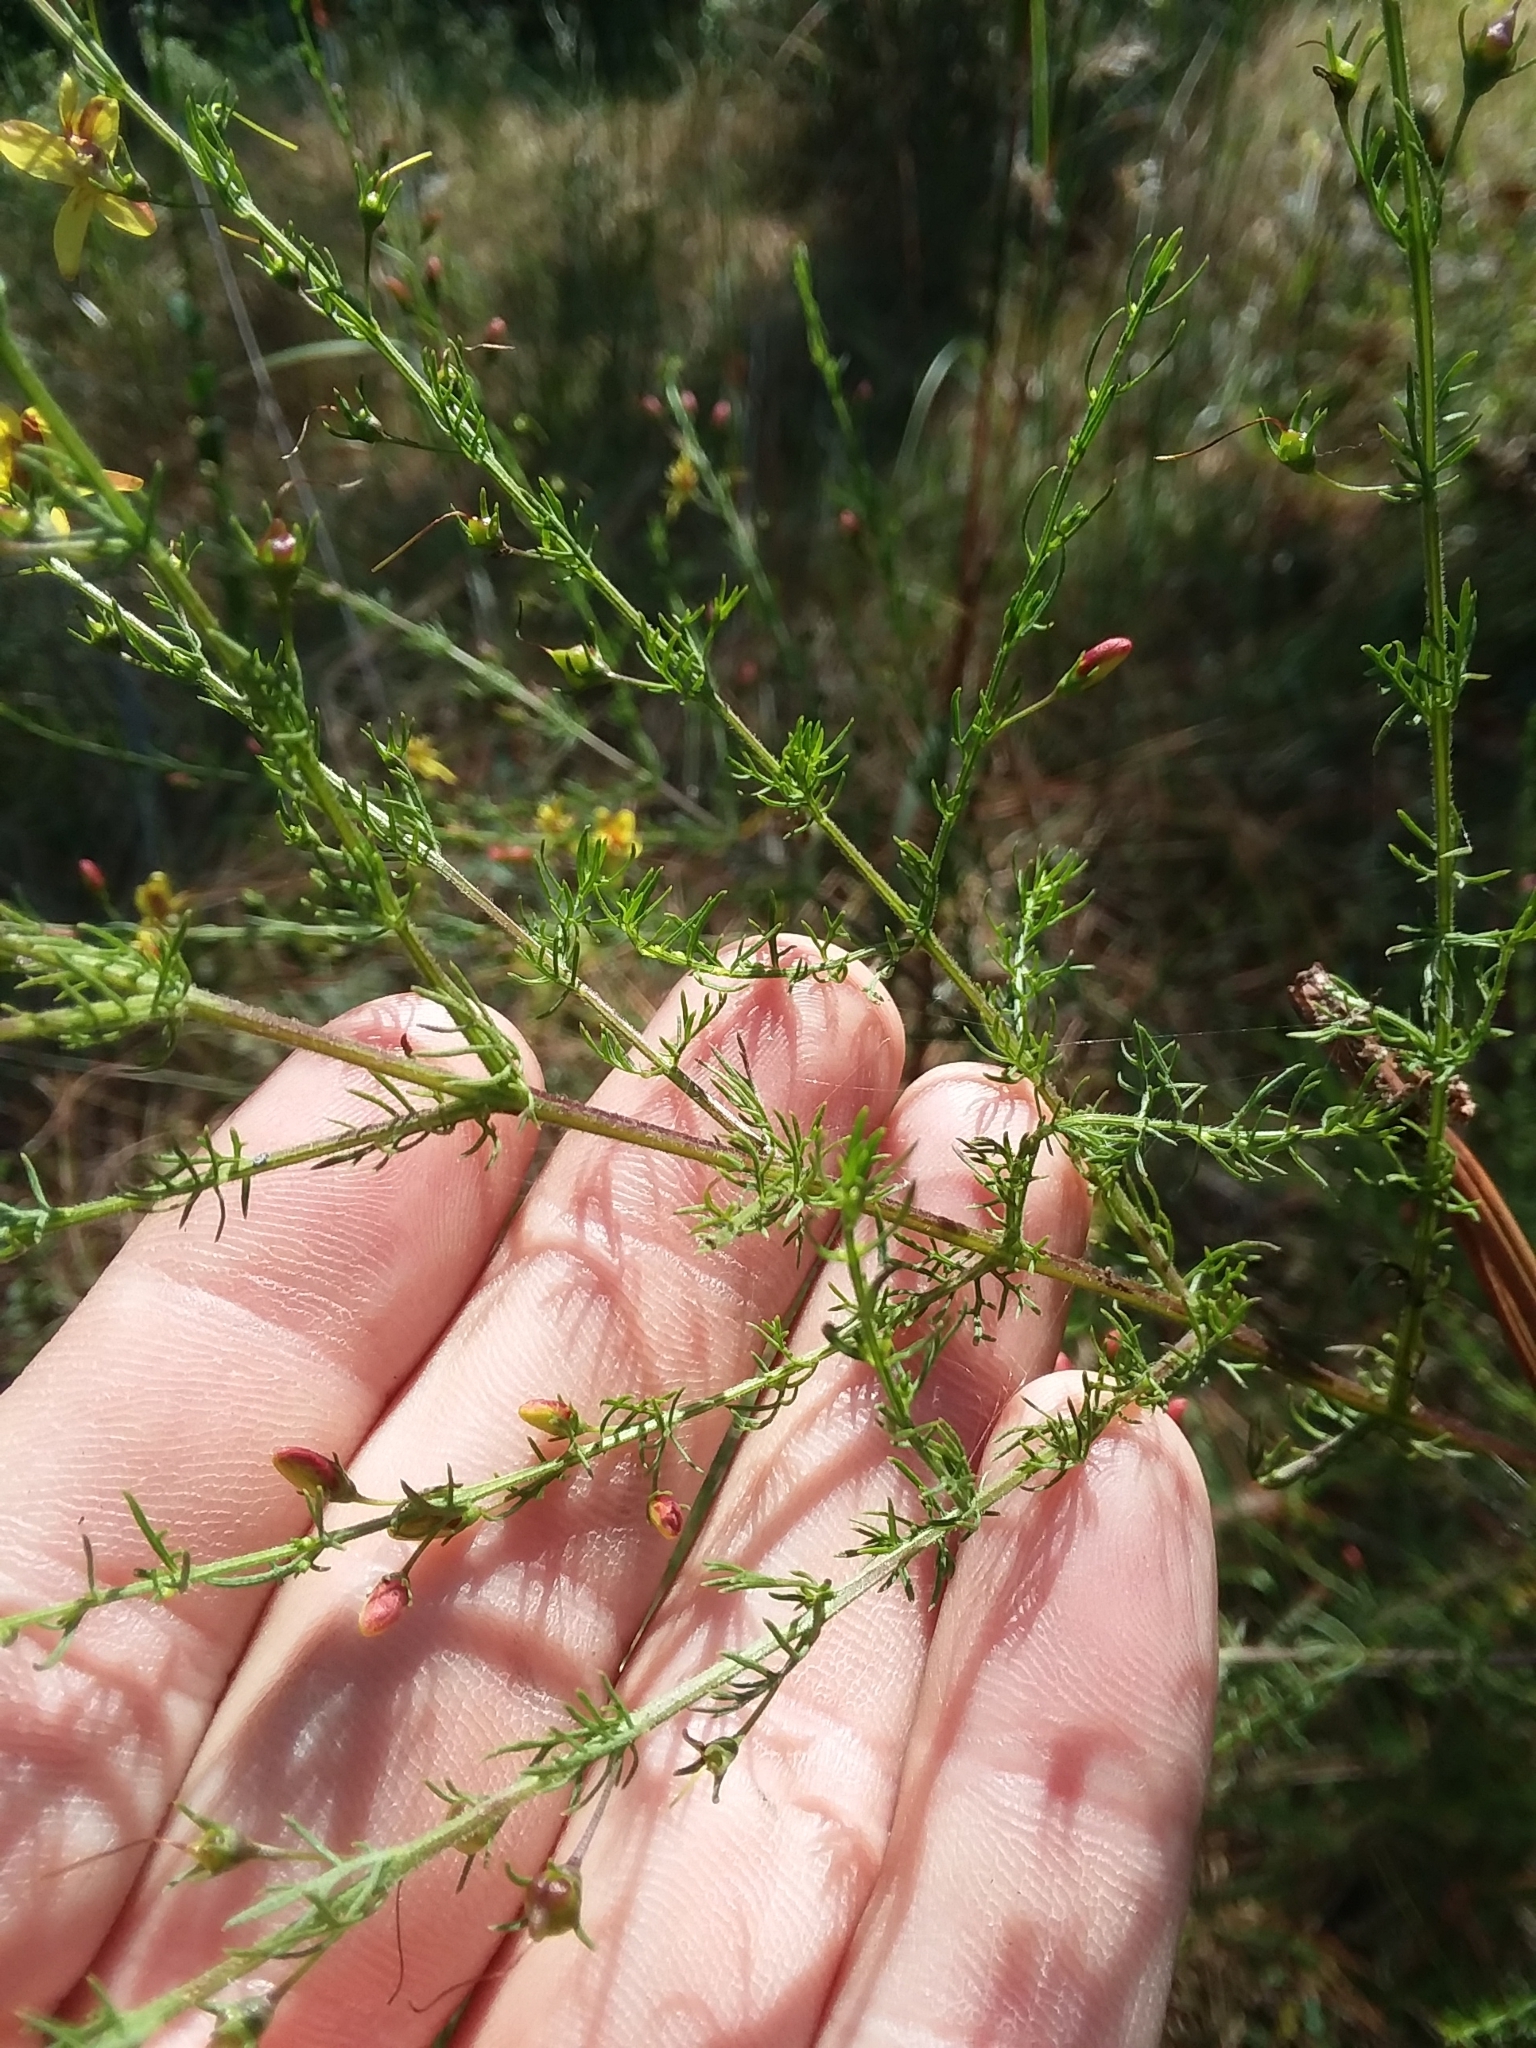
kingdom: Plantae
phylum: Tracheophyta
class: Magnoliopsida
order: Lamiales
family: Orobanchaceae
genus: Seymeria
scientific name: Seymeria cassioides
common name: Yaupon black-senna
